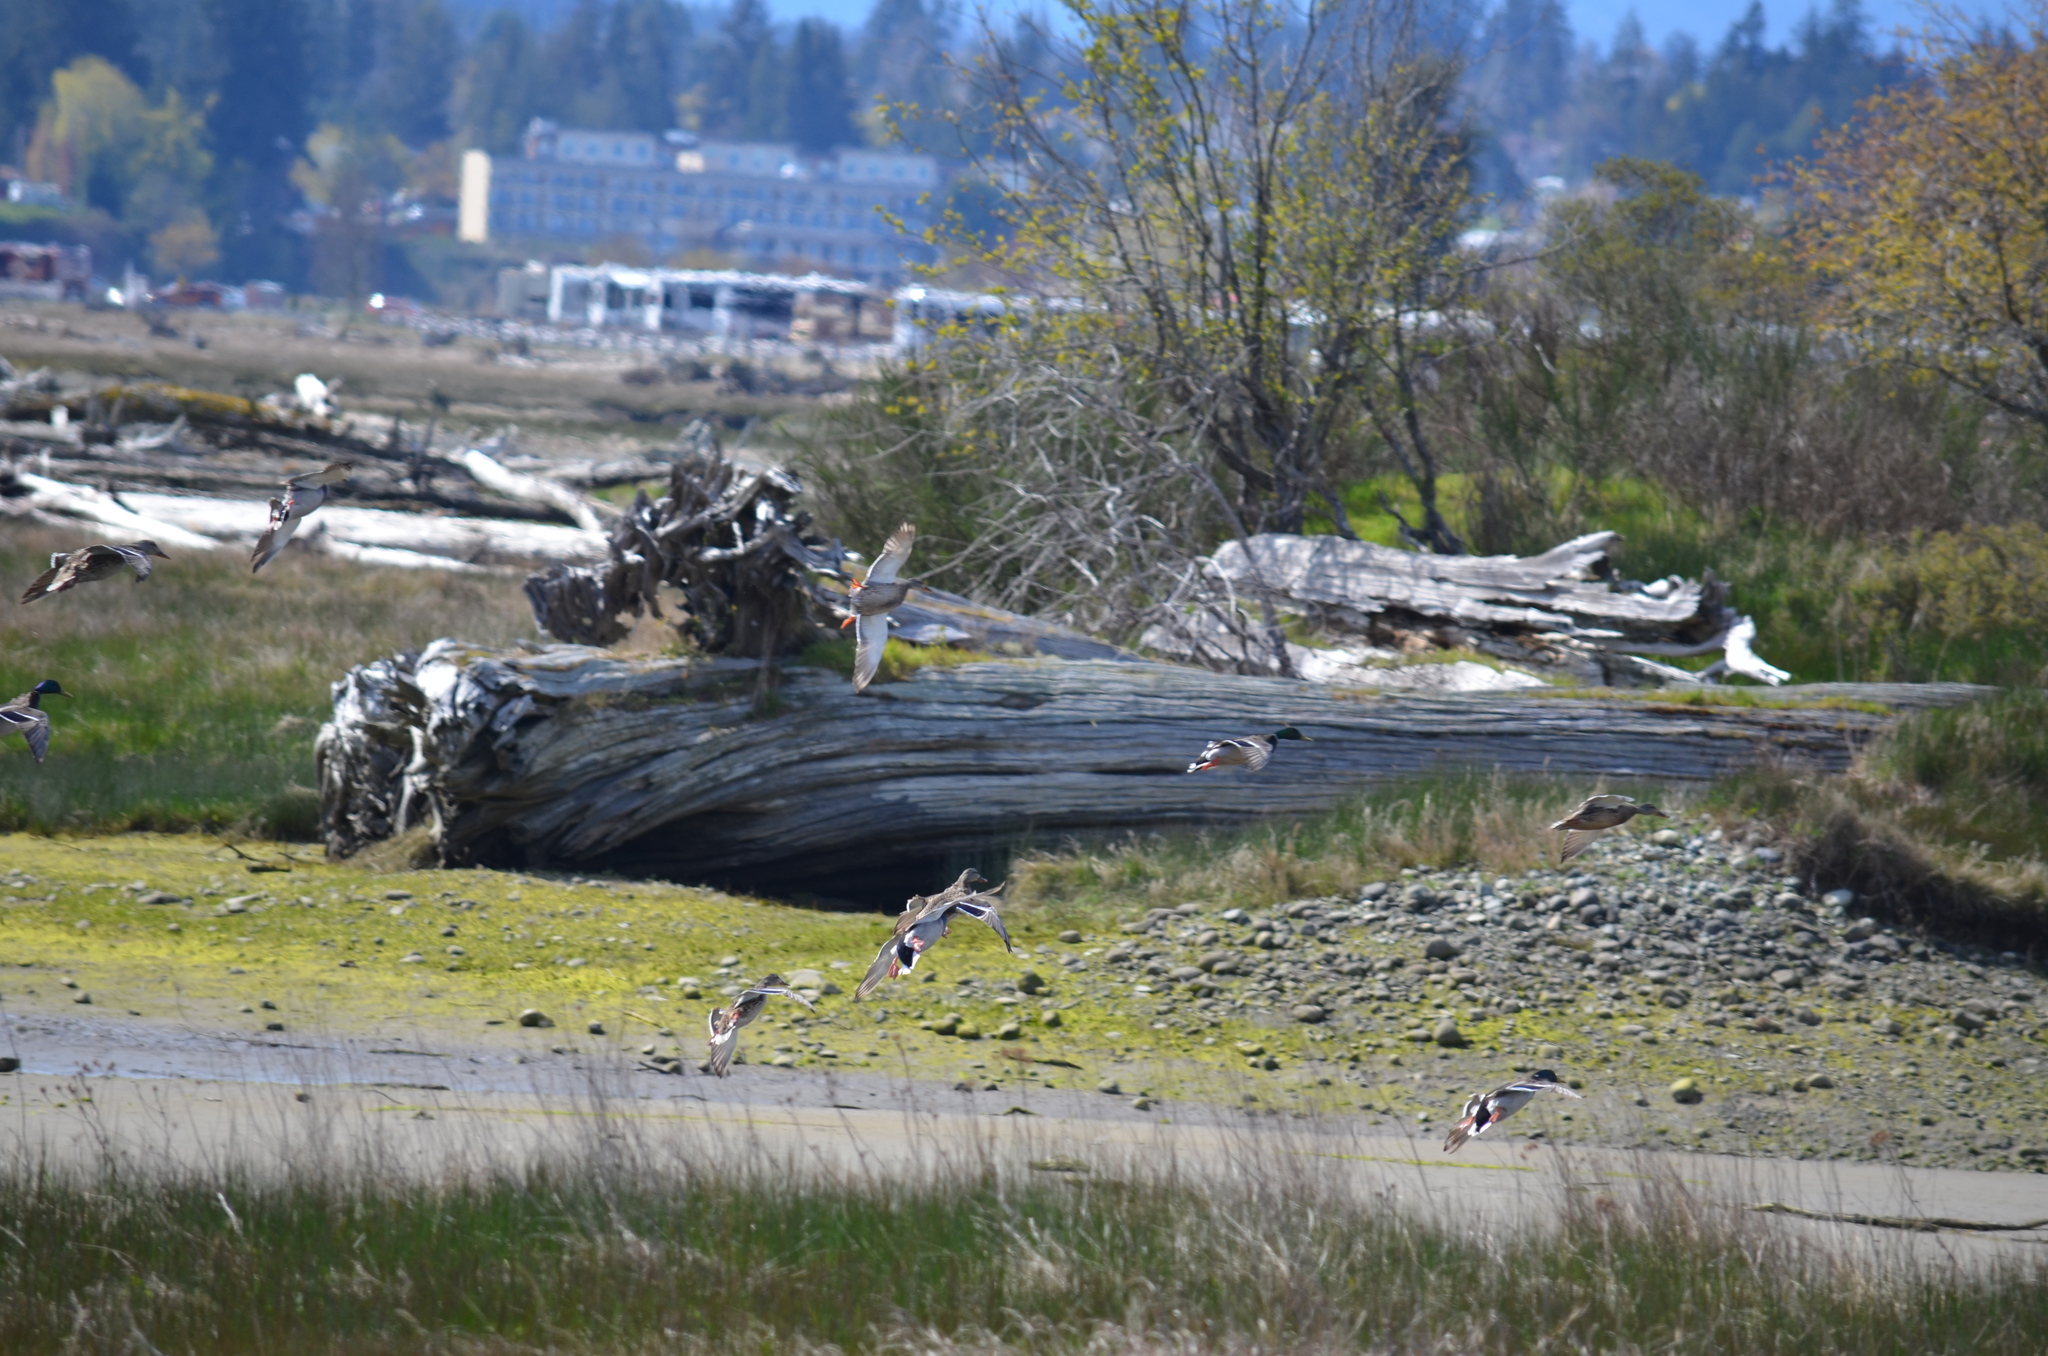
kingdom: Animalia
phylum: Chordata
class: Aves
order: Anseriformes
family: Anatidae
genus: Anas
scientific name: Anas platyrhynchos
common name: Mallard
